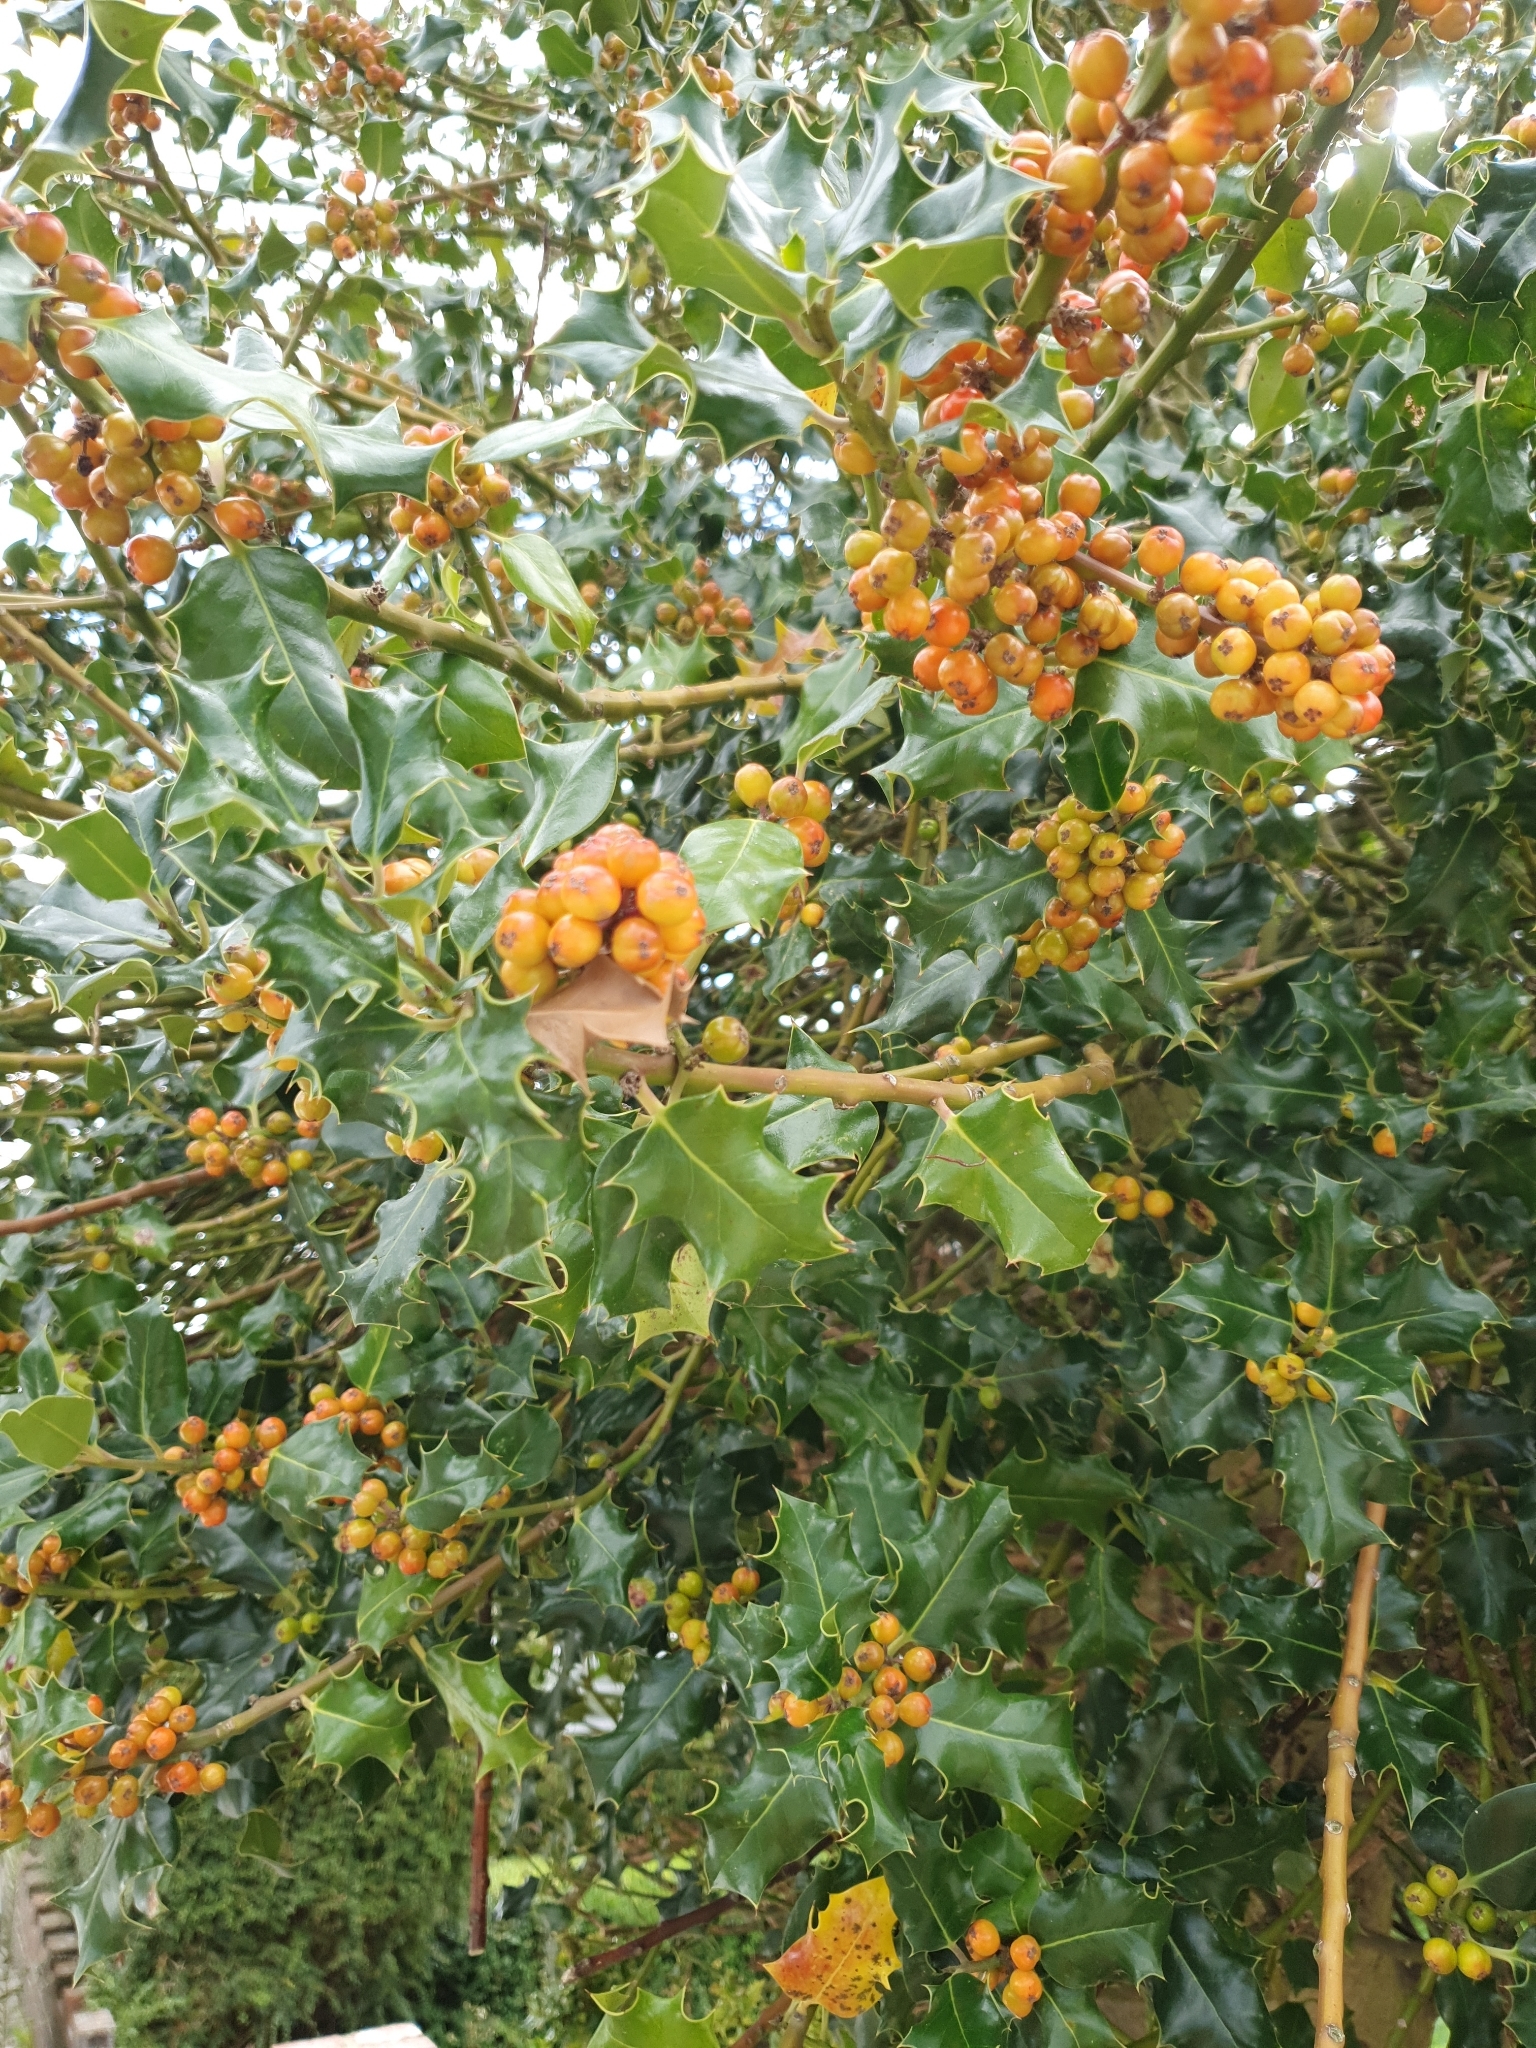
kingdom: Plantae
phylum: Tracheophyta
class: Magnoliopsida
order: Aquifoliales
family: Aquifoliaceae
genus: Ilex
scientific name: Ilex aquifolium
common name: English holly
